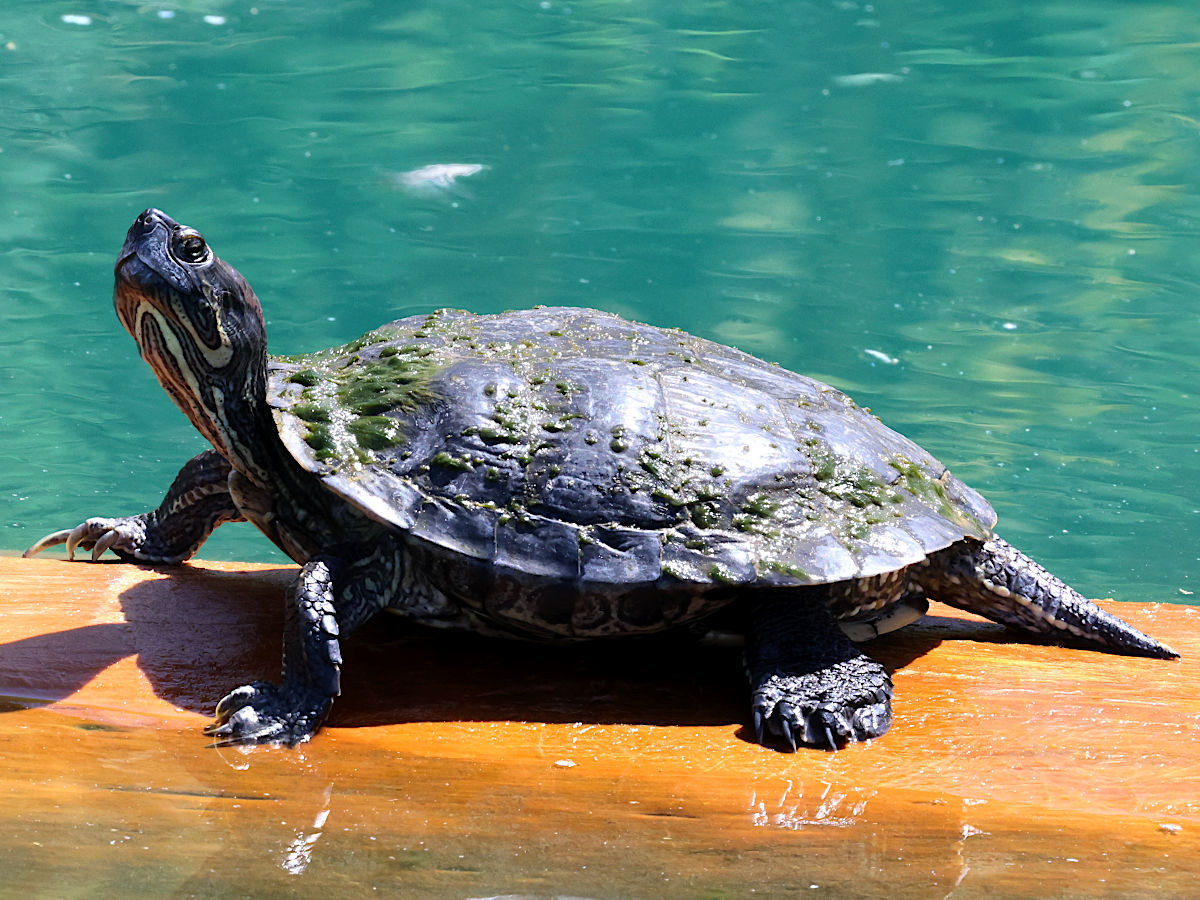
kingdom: Animalia
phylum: Chordata
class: Testudines
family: Emydidae
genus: Trachemys
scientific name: Trachemys scripta
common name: Slider
